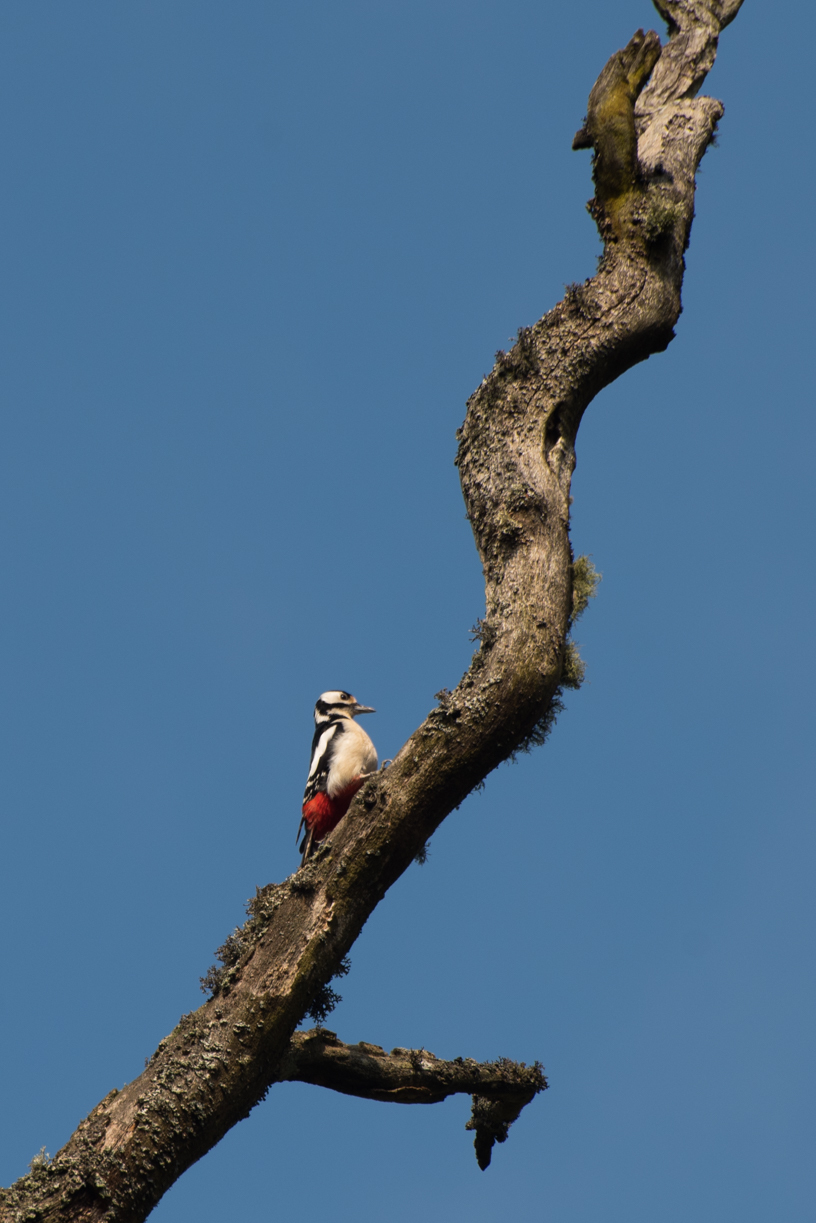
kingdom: Animalia
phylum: Chordata
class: Aves
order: Piciformes
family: Picidae
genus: Dendrocopos
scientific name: Dendrocopos major
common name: Great spotted woodpecker
